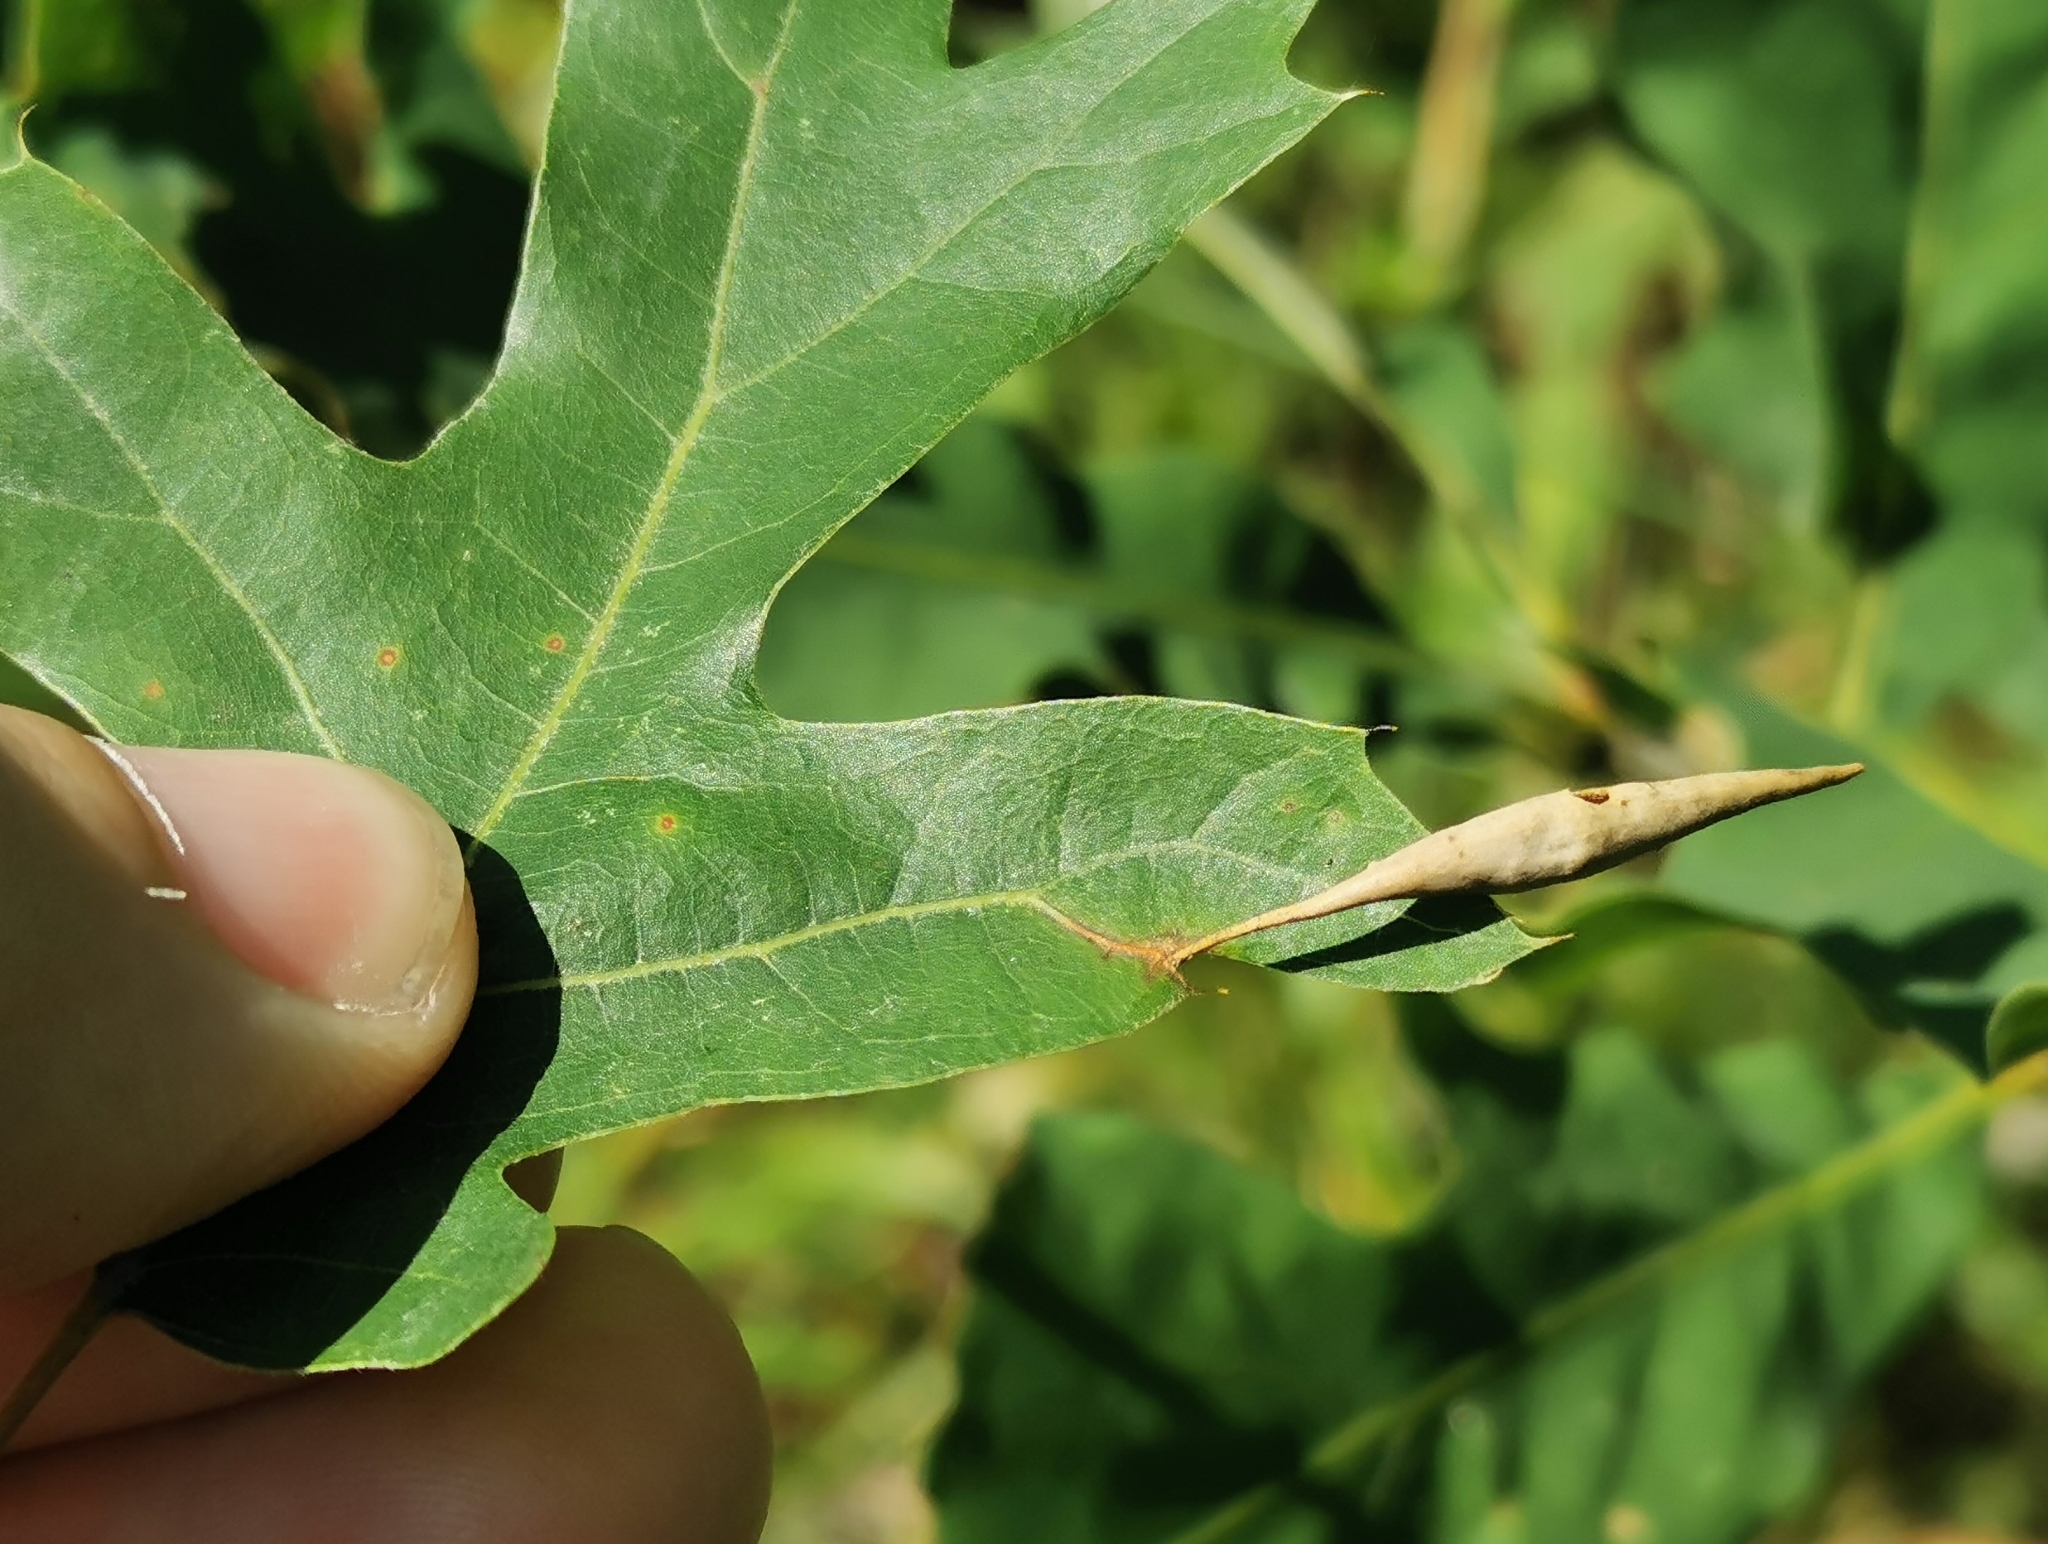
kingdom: Animalia
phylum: Arthropoda
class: Insecta
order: Hymenoptera
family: Cynipidae
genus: Amphibolips
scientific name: Amphibolips
